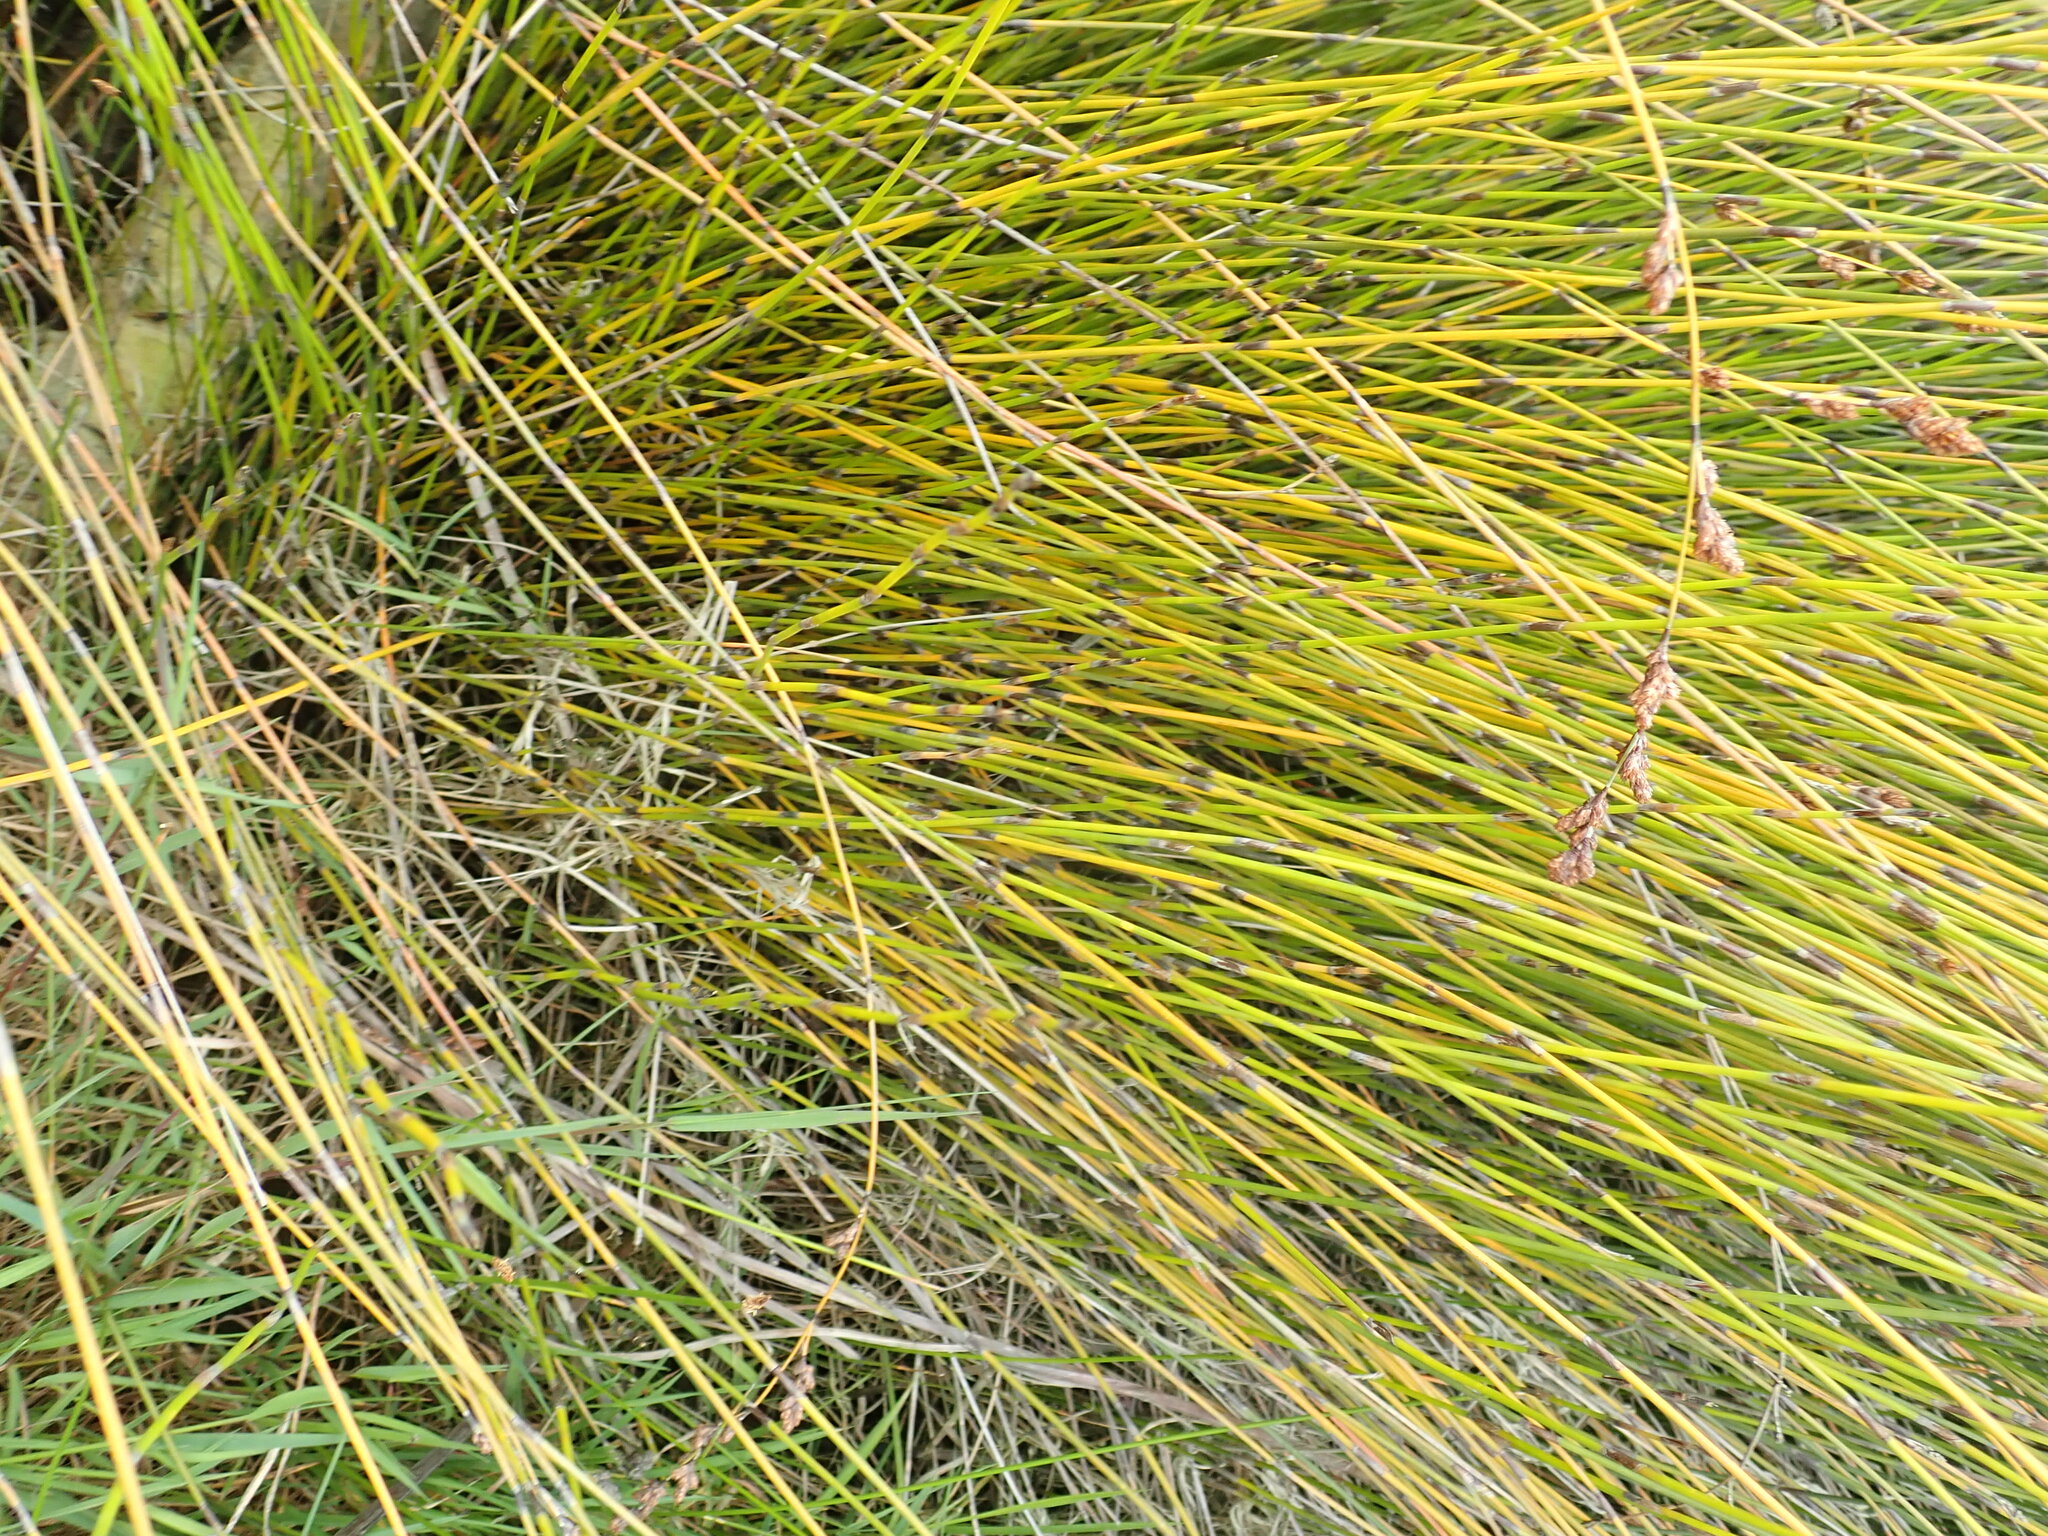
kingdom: Plantae
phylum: Tracheophyta
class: Liliopsida
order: Poales
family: Restionaceae
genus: Apodasmia
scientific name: Apodasmia similis
